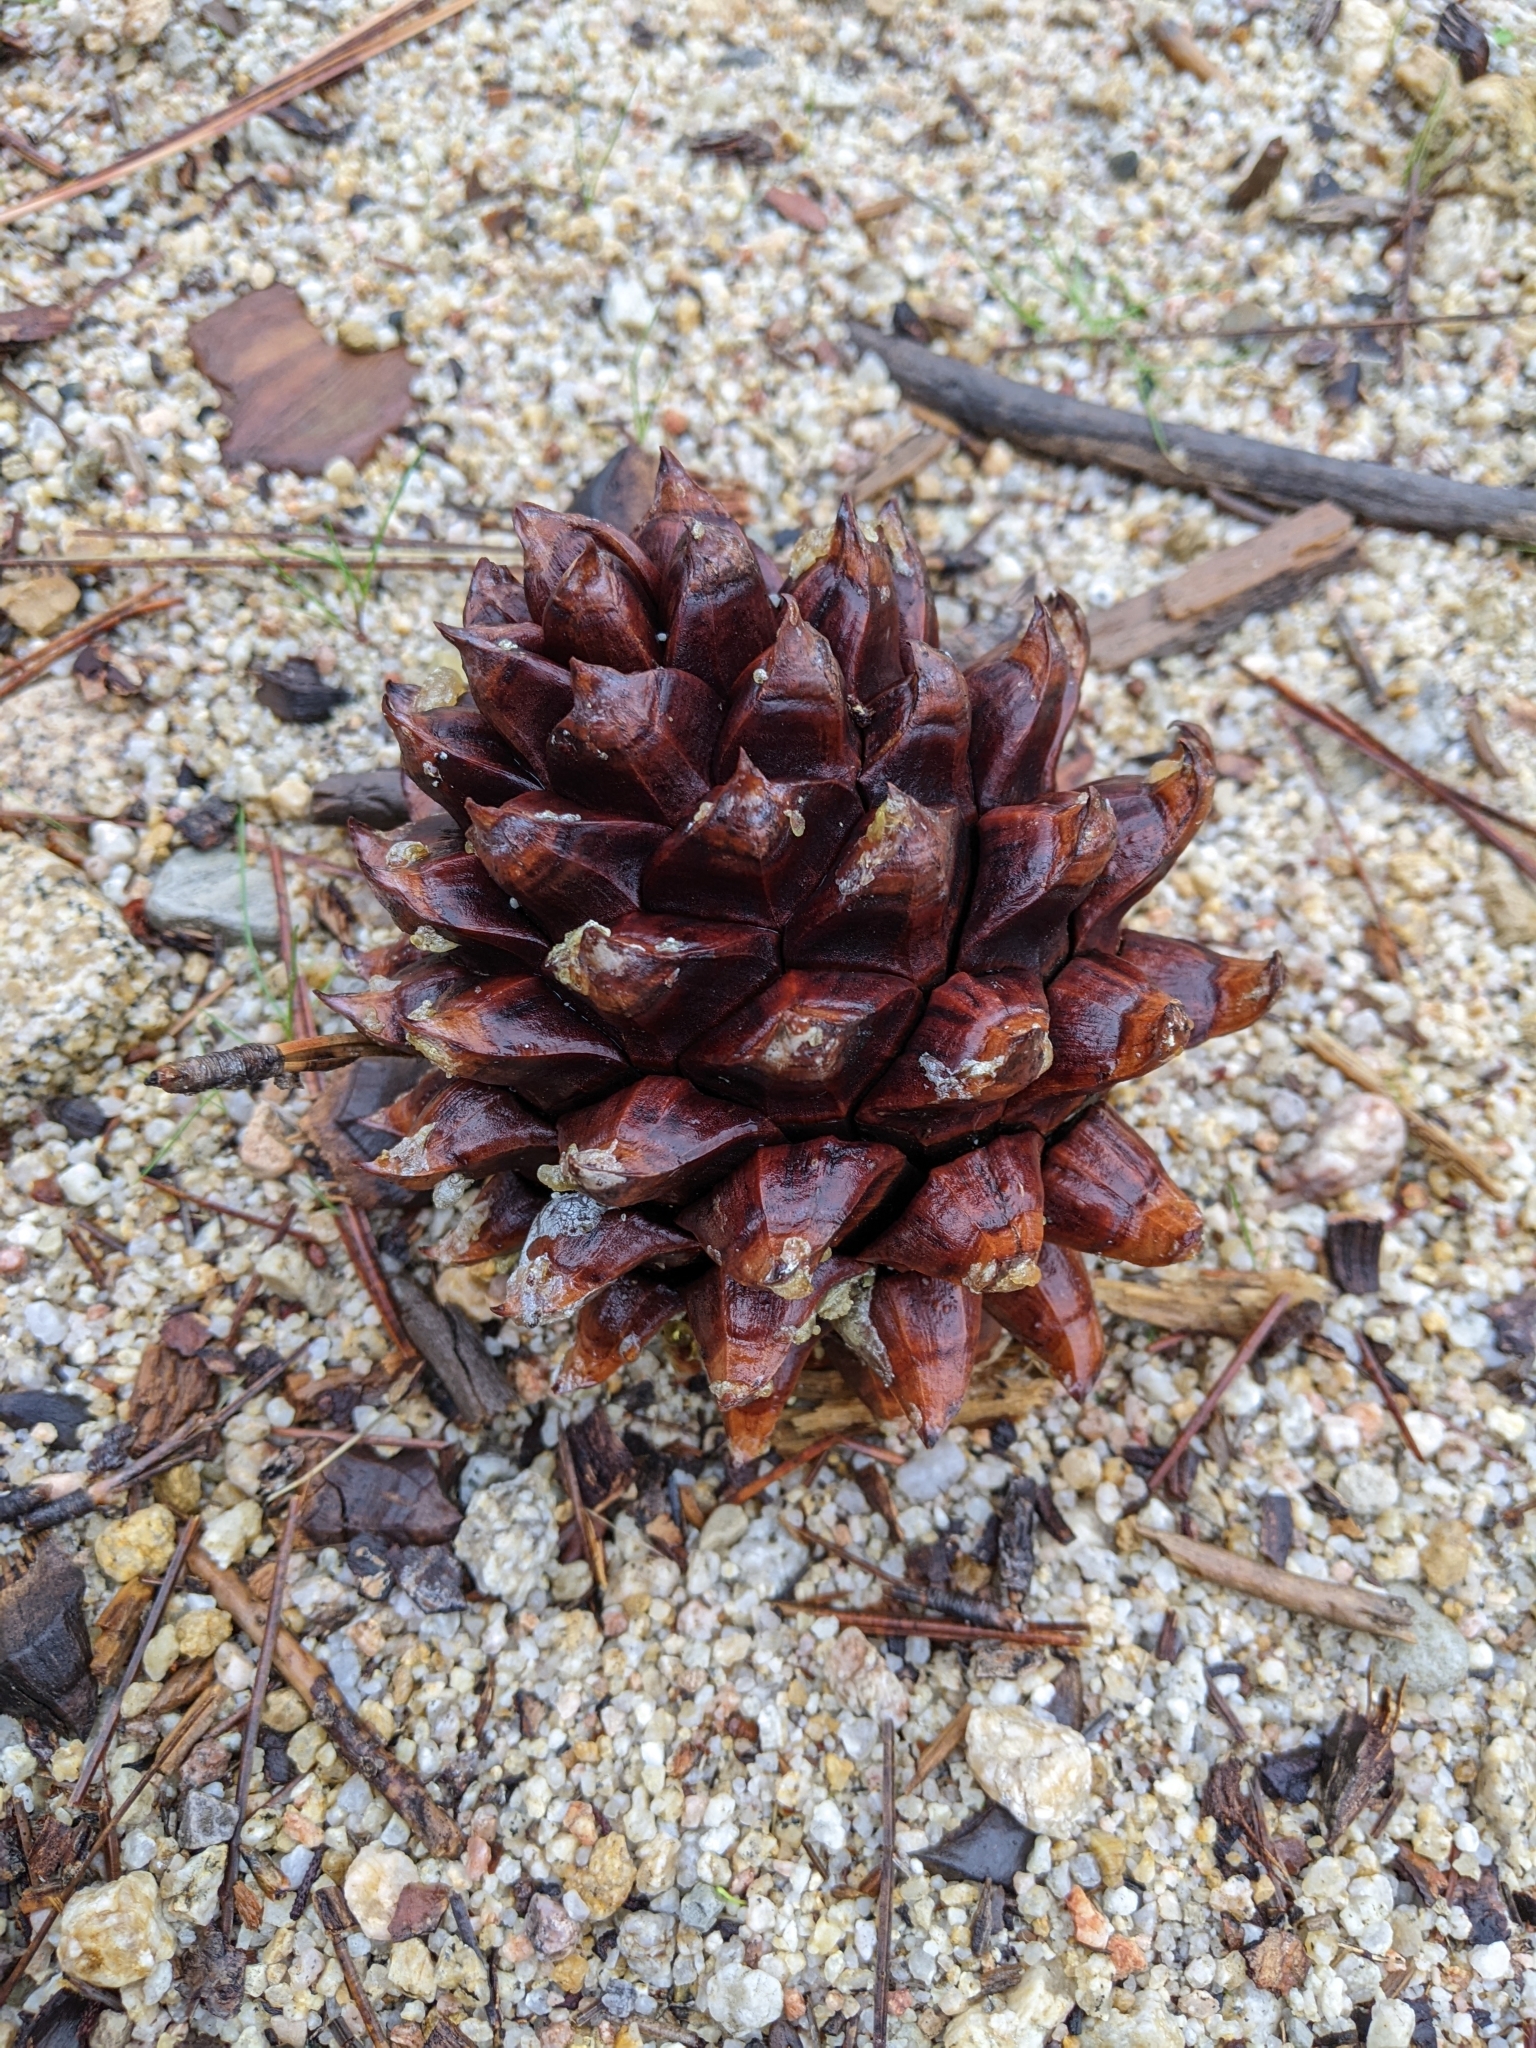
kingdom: Plantae
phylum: Tracheophyta
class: Pinopsida
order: Pinales
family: Pinaceae
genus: Pinus
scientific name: Pinus sabiniana
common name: Bull pine
